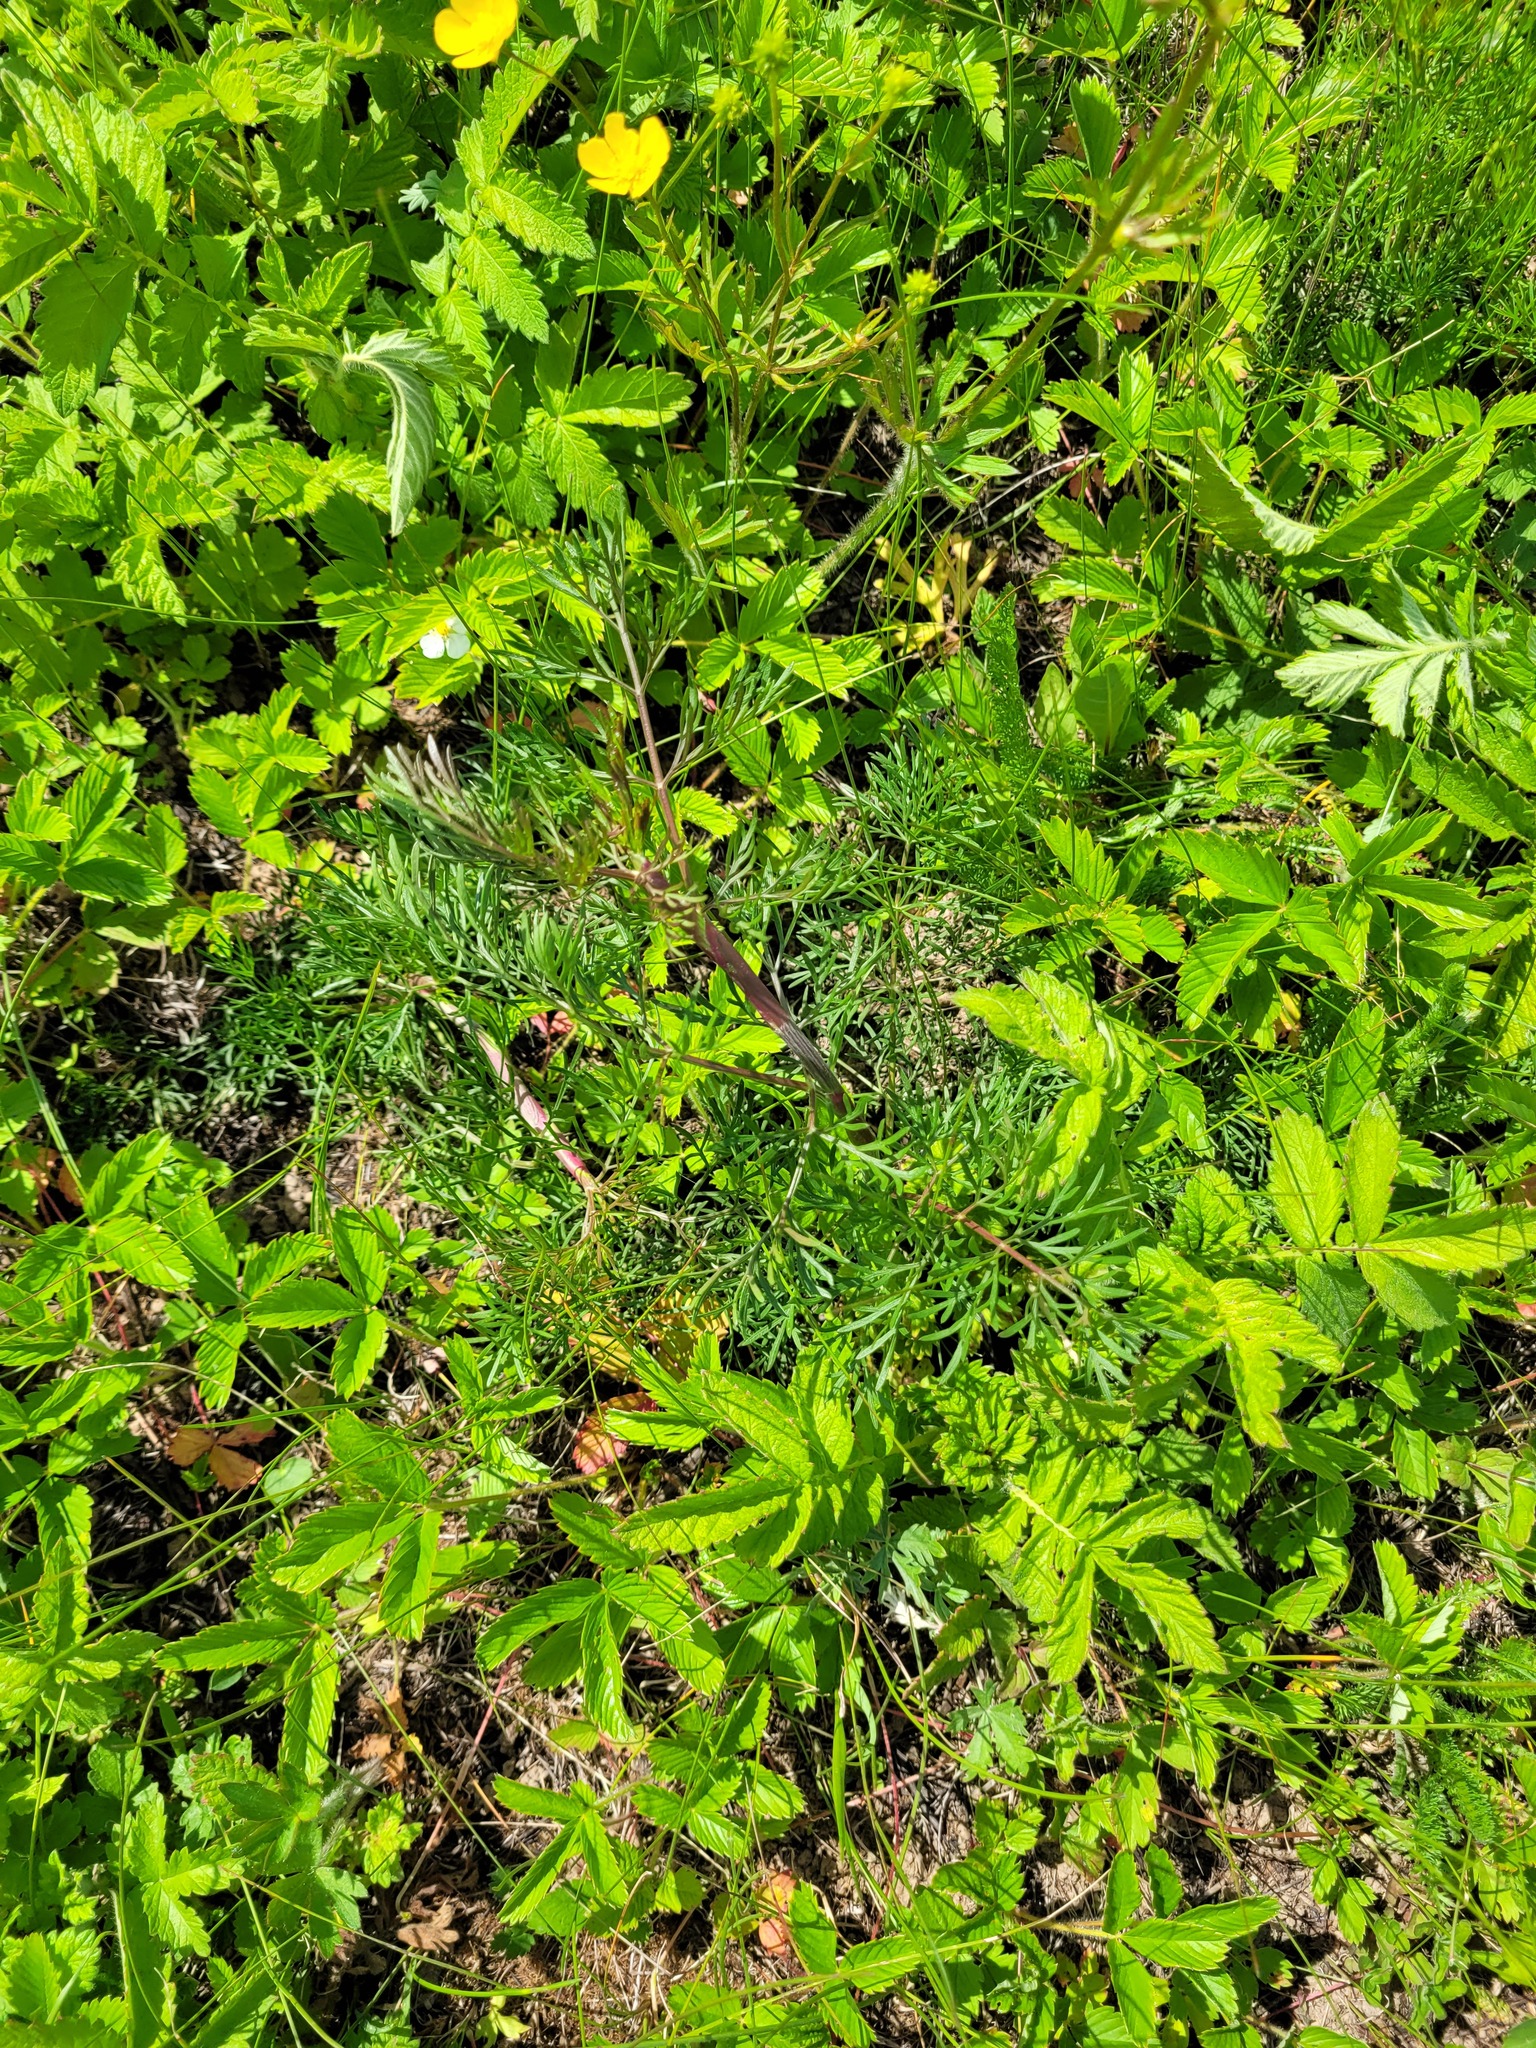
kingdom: Plantae
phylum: Tracheophyta
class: Magnoliopsida
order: Apiales
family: Apiaceae
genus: Seseli
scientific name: Seseli annuum
